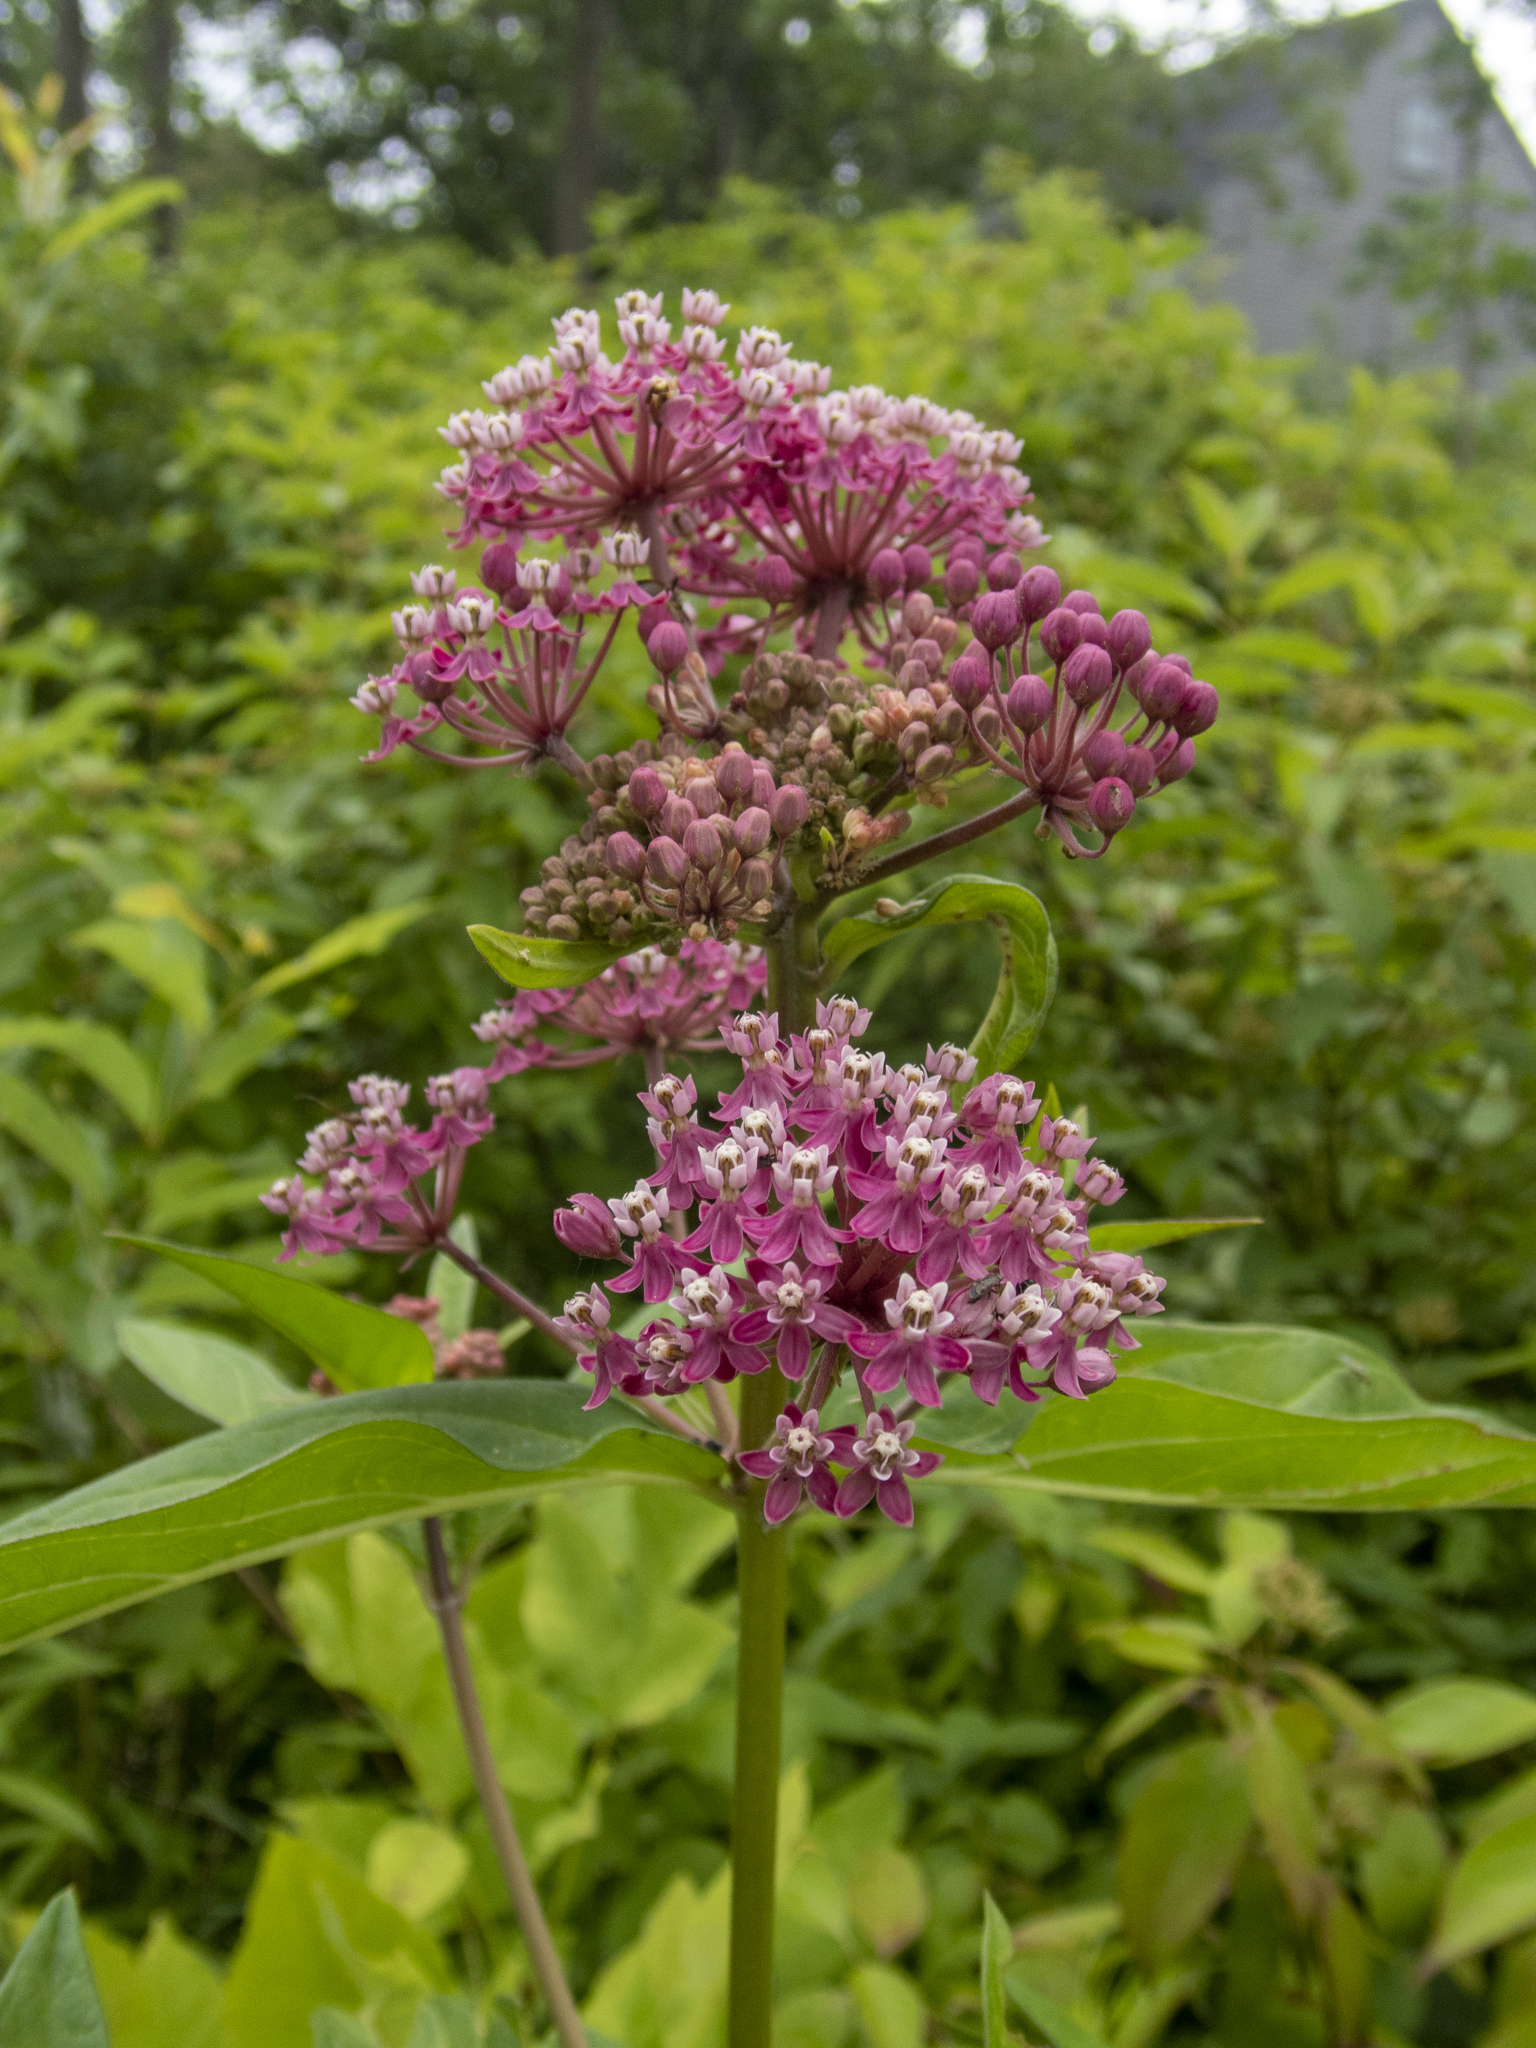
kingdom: Plantae
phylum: Tracheophyta
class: Magnoliopsida
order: Gentianales
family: Apocynaceae
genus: Asclepias
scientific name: Asclepias incarnata
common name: Swamp milkweed
